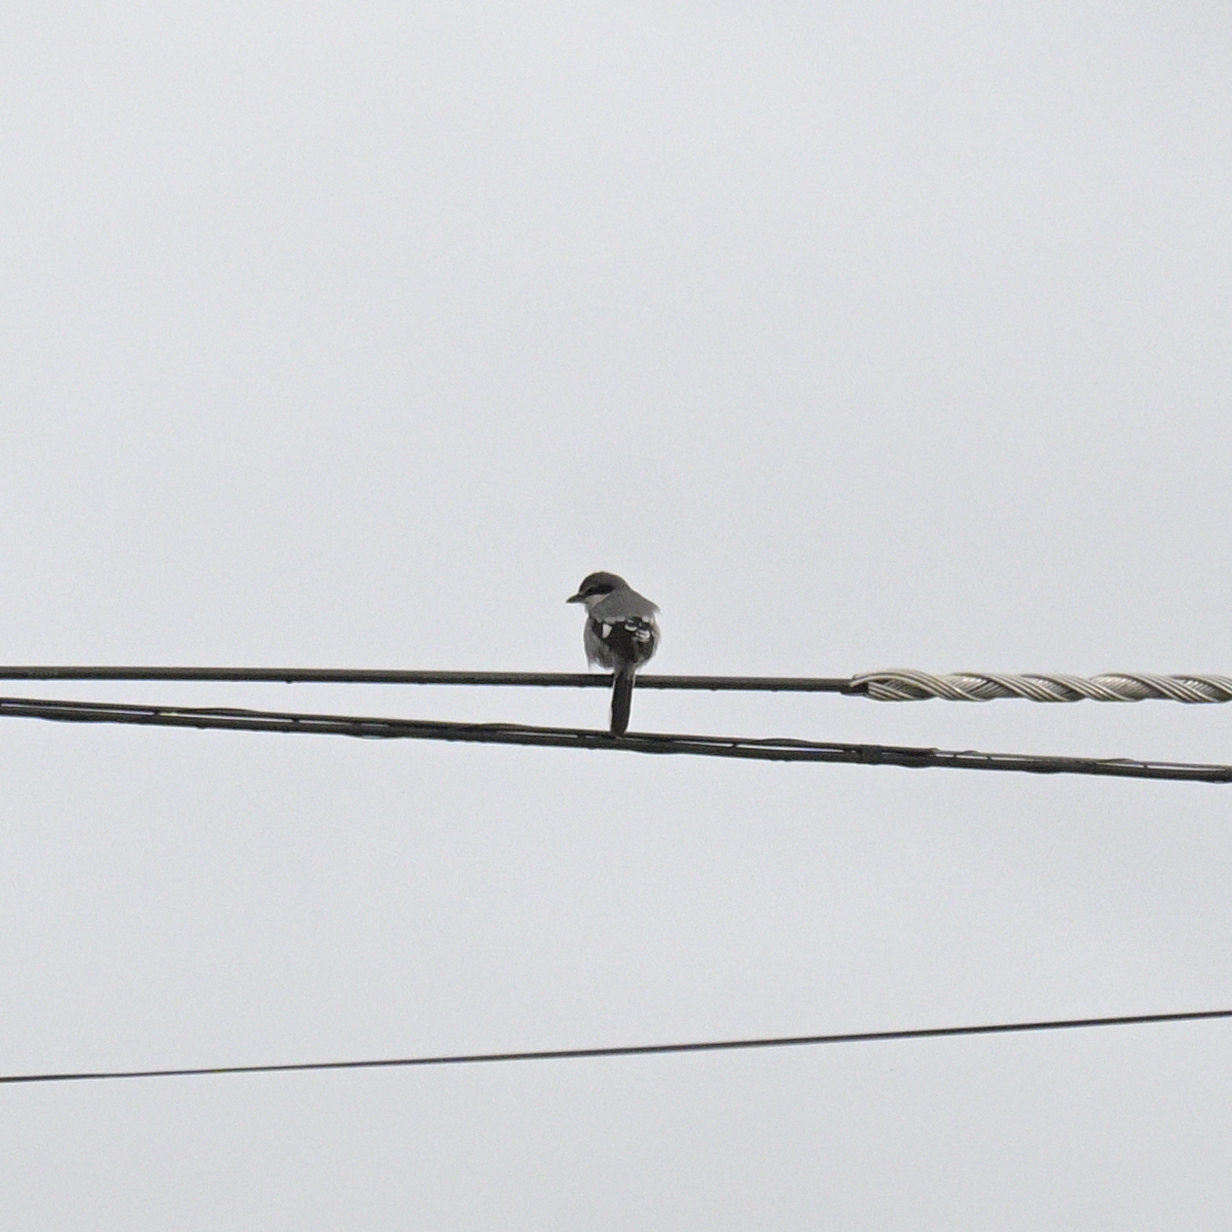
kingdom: Animalia
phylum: Chordata
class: Aves
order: Passeriformes
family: Laniidae
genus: Lanius
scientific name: Lanius meridionalis
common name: Iberian grey shrike
